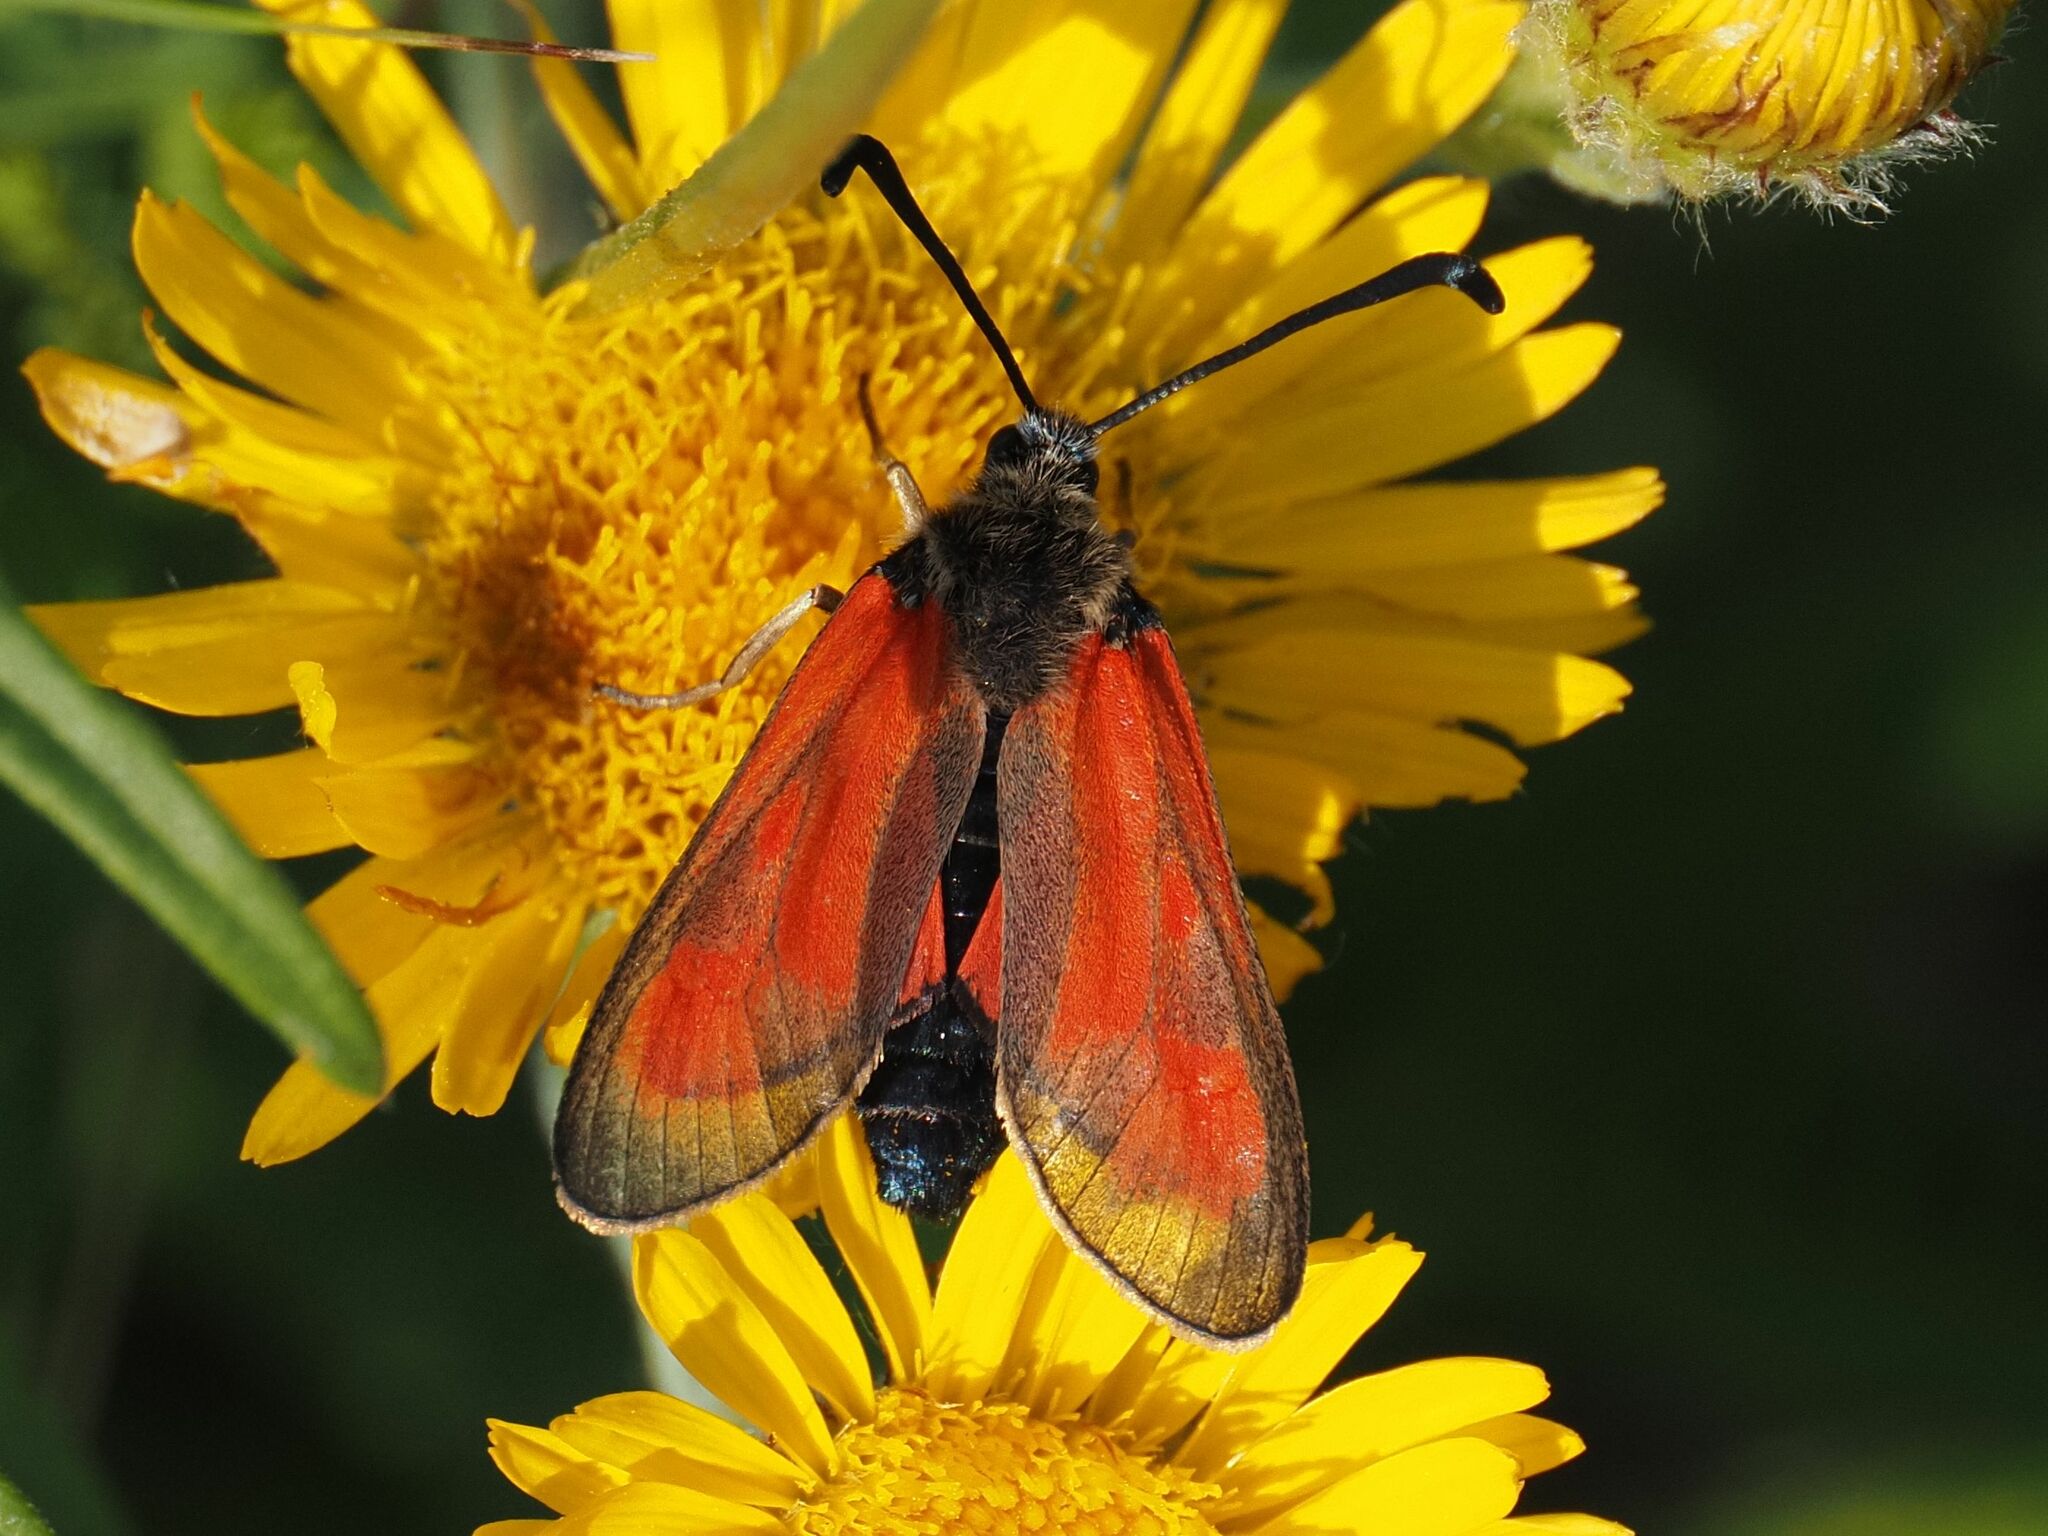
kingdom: Animalia
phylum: Arthropoda
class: Insecta
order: Lepidoptera
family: Zygaenidae
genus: Zygaena
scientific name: Zygaena punctum
